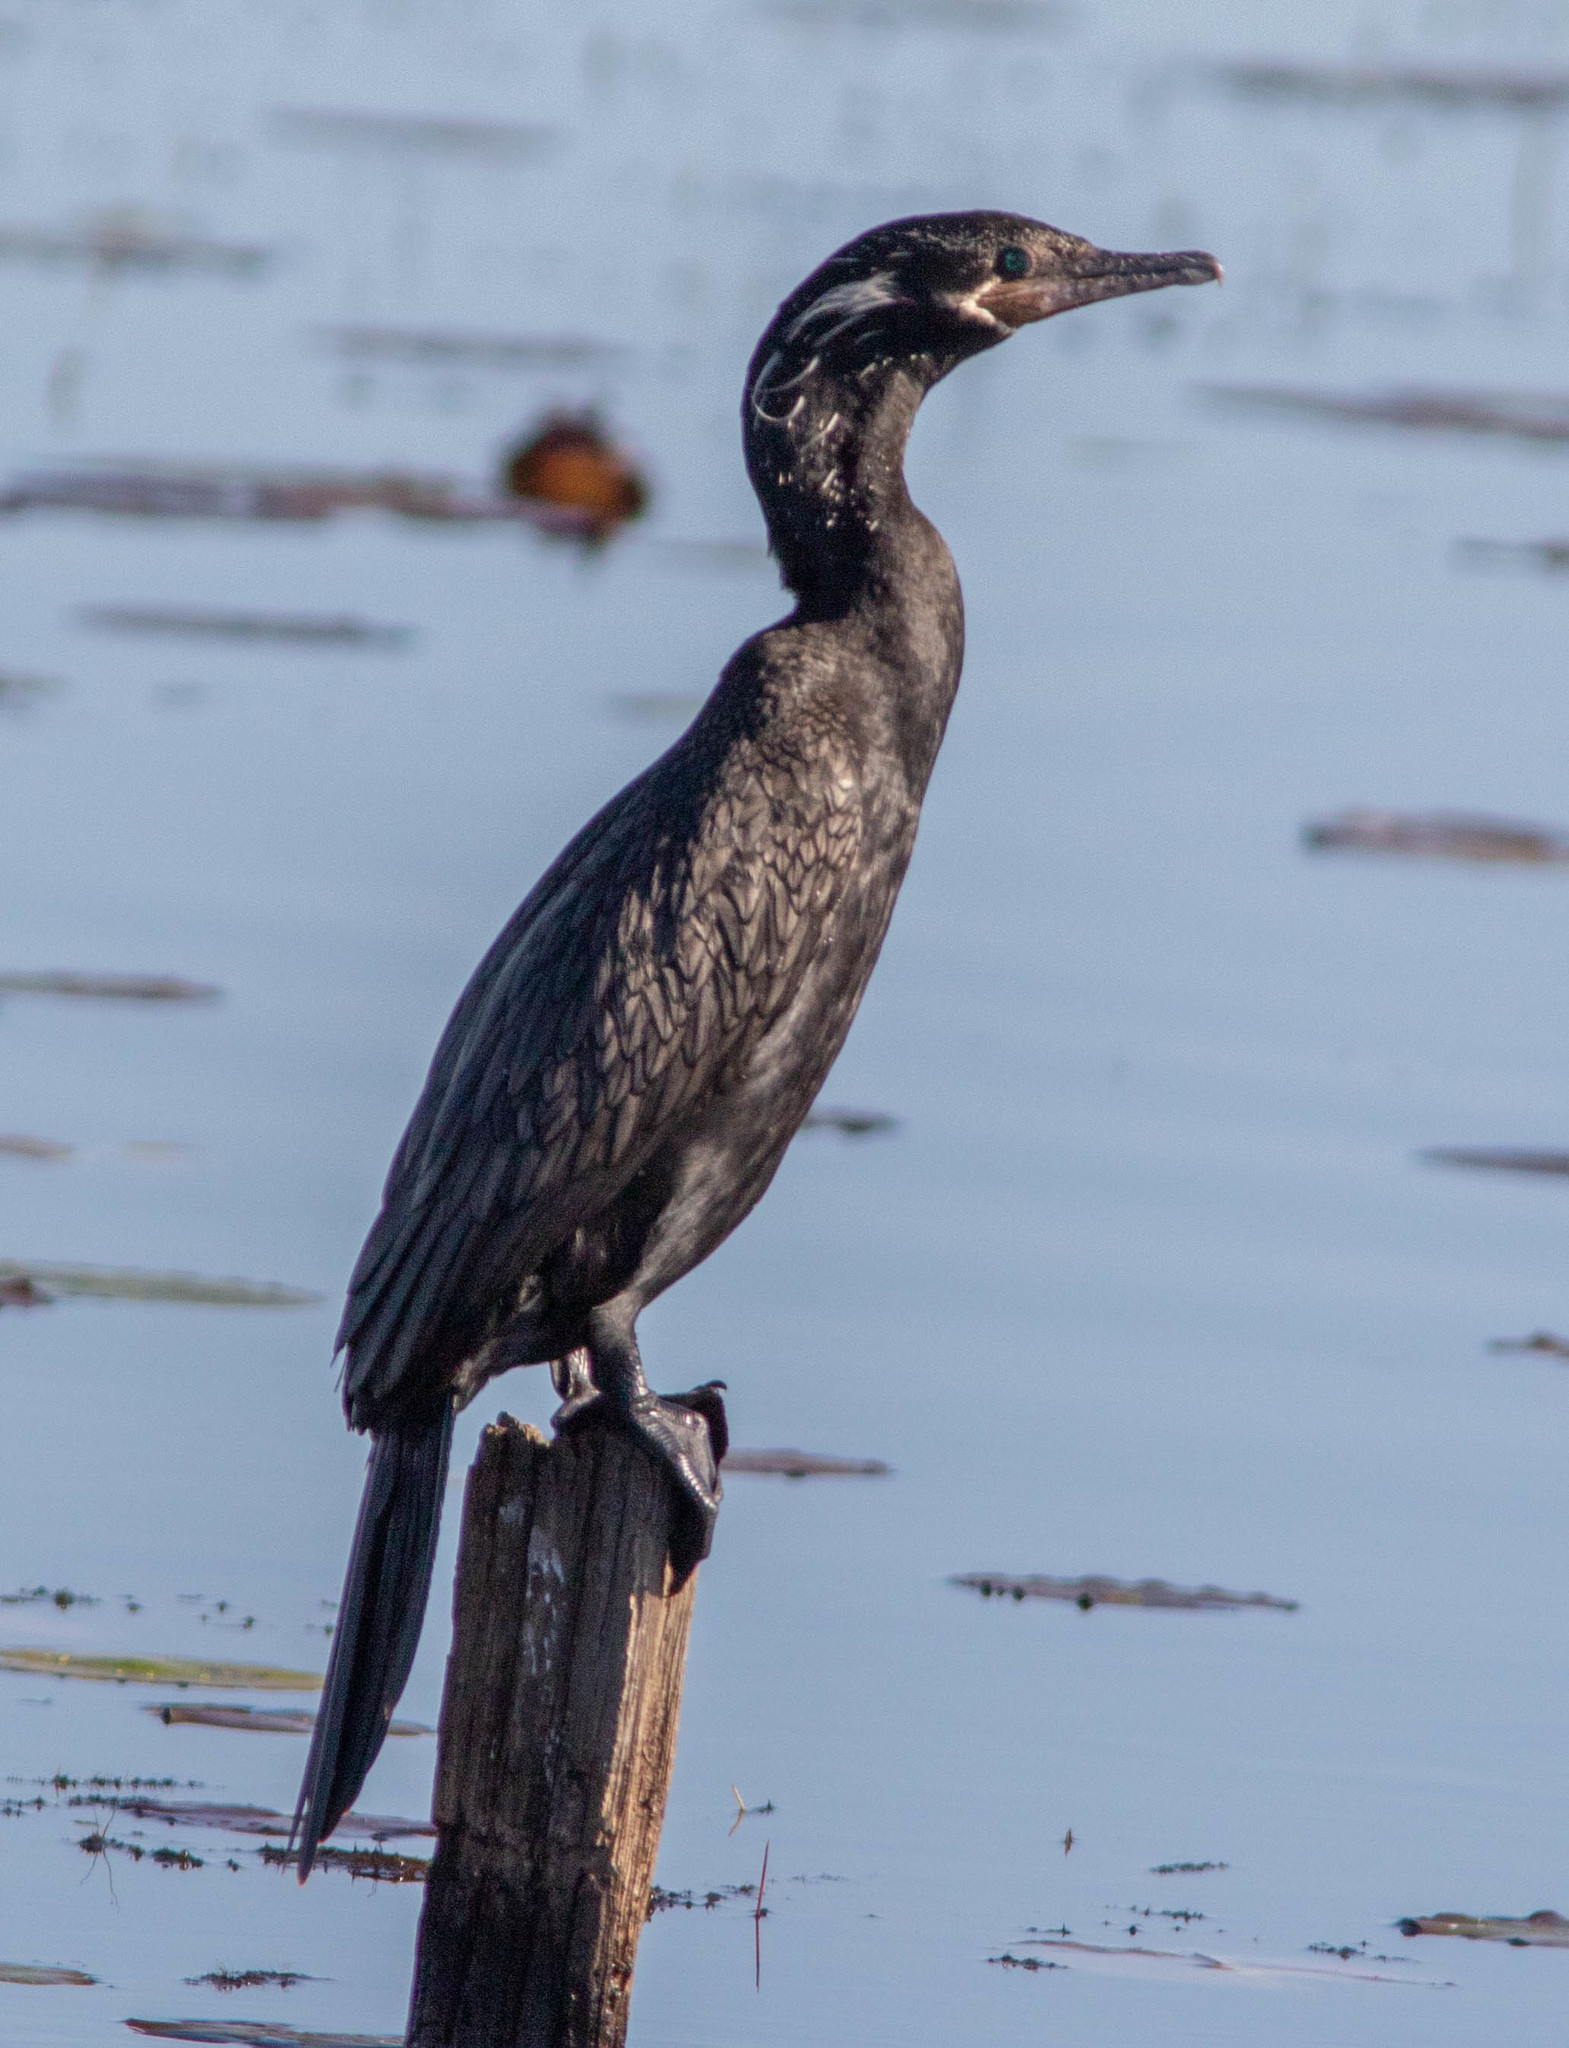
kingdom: Animalia
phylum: Chordata
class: Aves
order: Suliformes
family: Phalacrocoracidae
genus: Phalacrocorax
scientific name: Phalacrocorax brasilianus
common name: Neotropic cormorant
